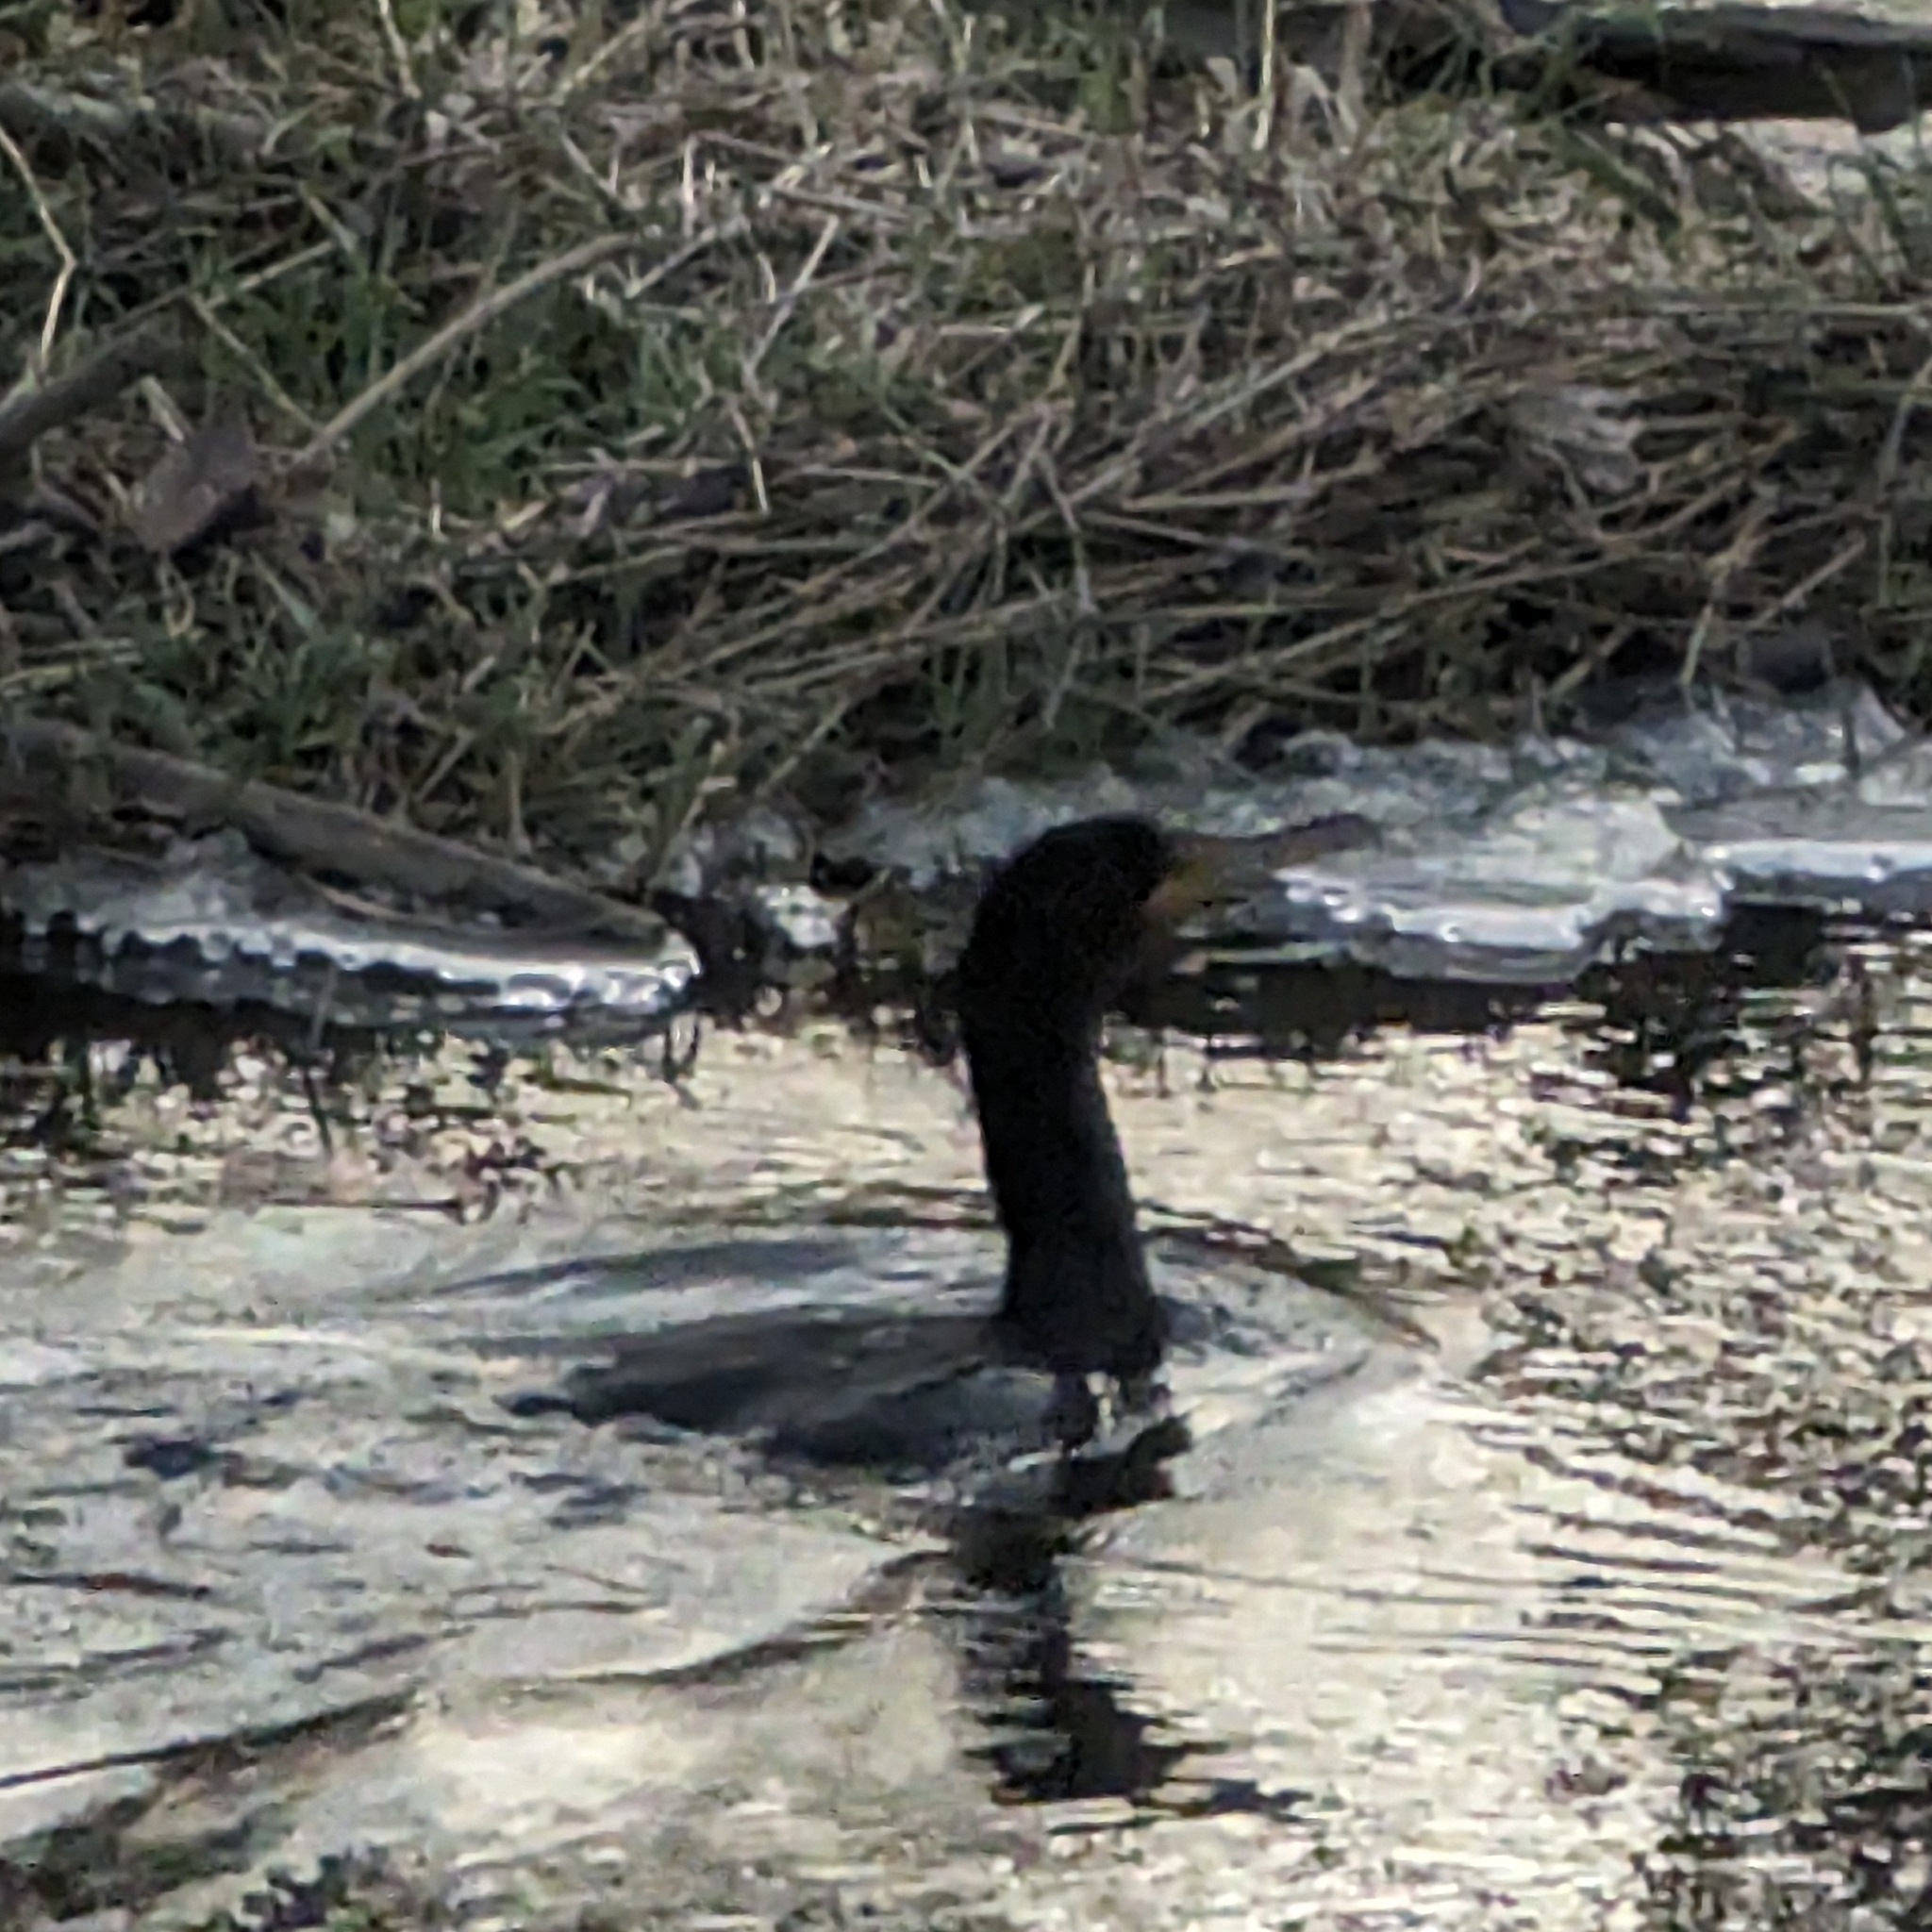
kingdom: Animalia
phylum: Chordata
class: Aves
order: Suliformes
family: Phalacrocoracidae
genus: Phalacrocorax
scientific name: Phalacrocorax auritus
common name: Double-crested cormorant
